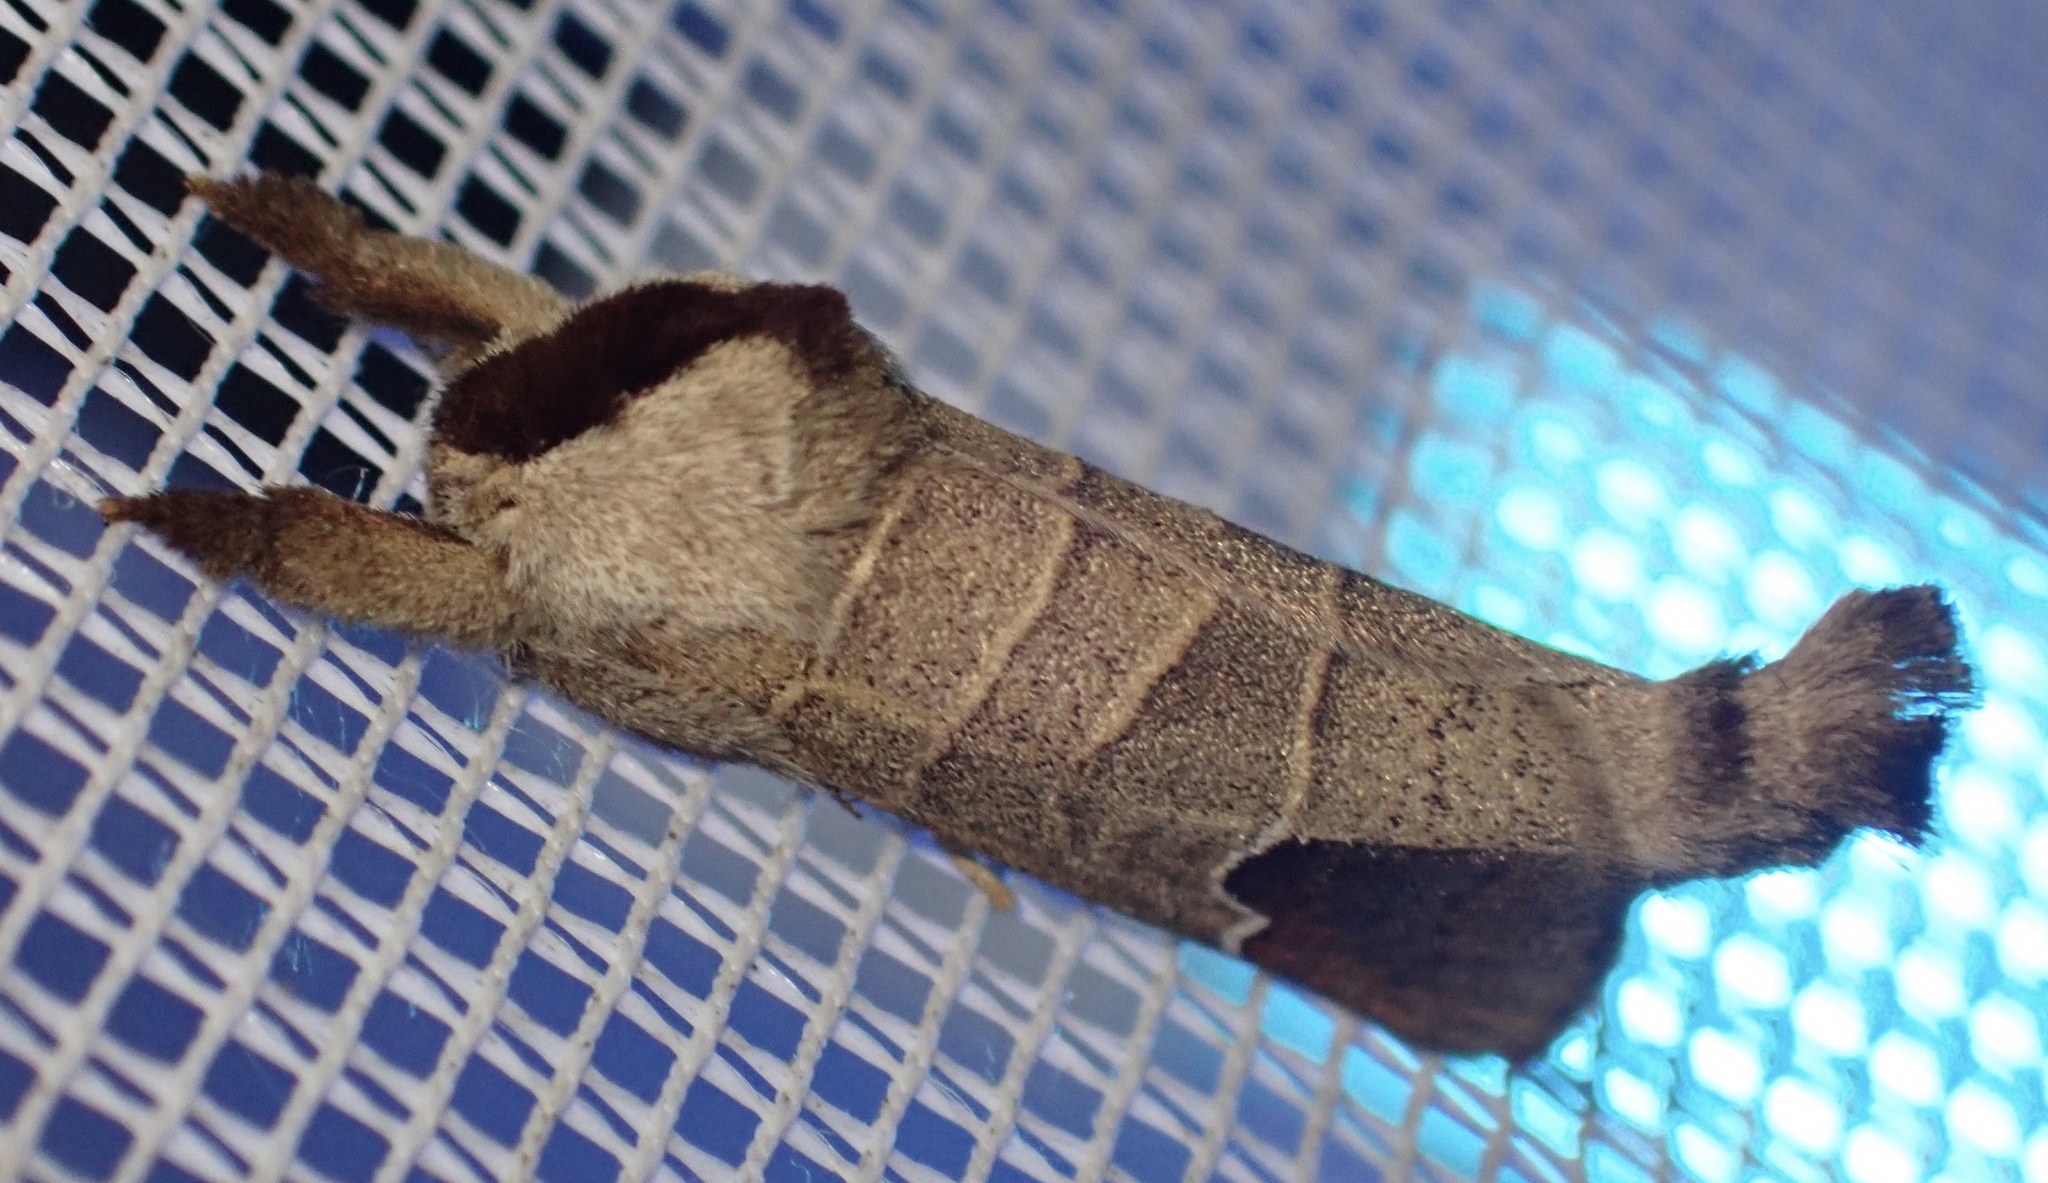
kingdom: Animalia
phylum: Arthropoda
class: Insecta
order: Lepidoptera
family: Notodontidae
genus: Clostera
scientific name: Clostera curtula
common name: Chocolate-tip
